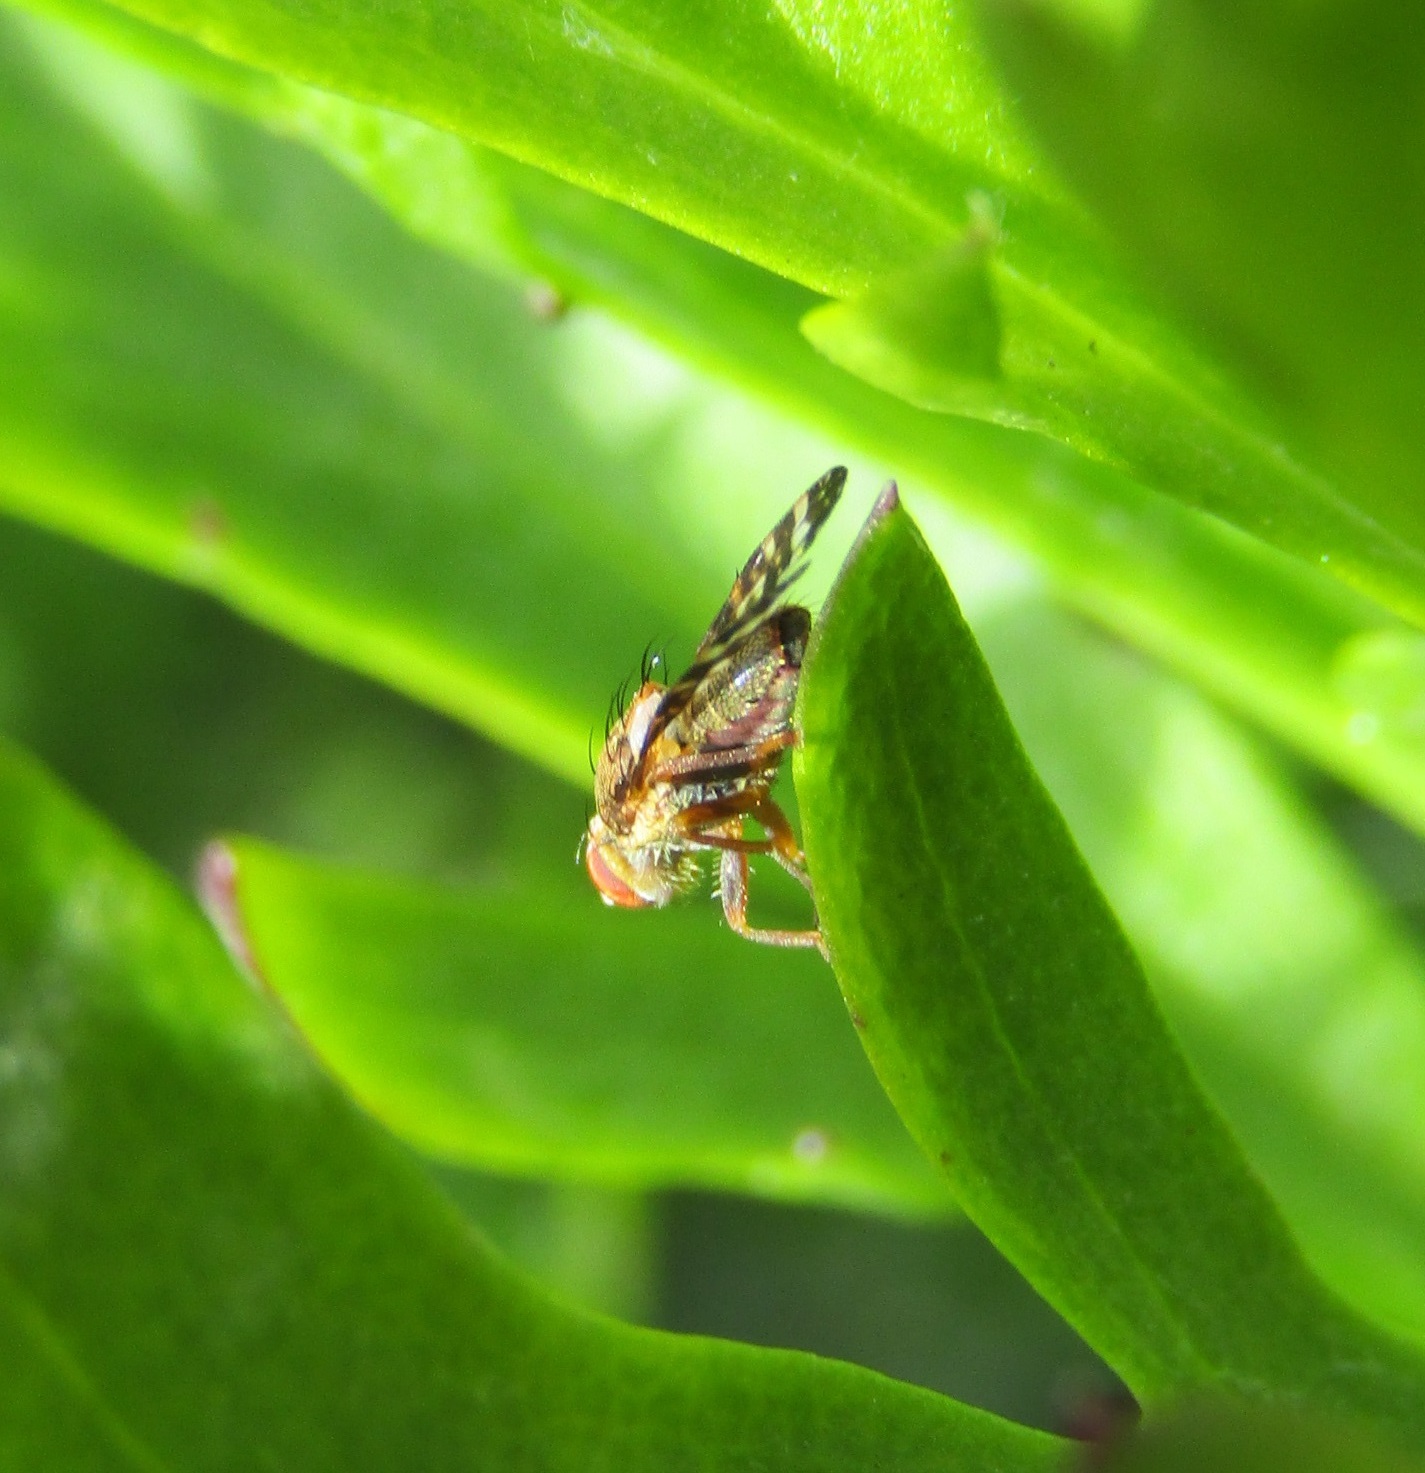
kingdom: Animalia
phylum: Arthropoda
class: Insecta
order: Diptera
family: Tephritidae
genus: Sphenella
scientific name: Sphenella
